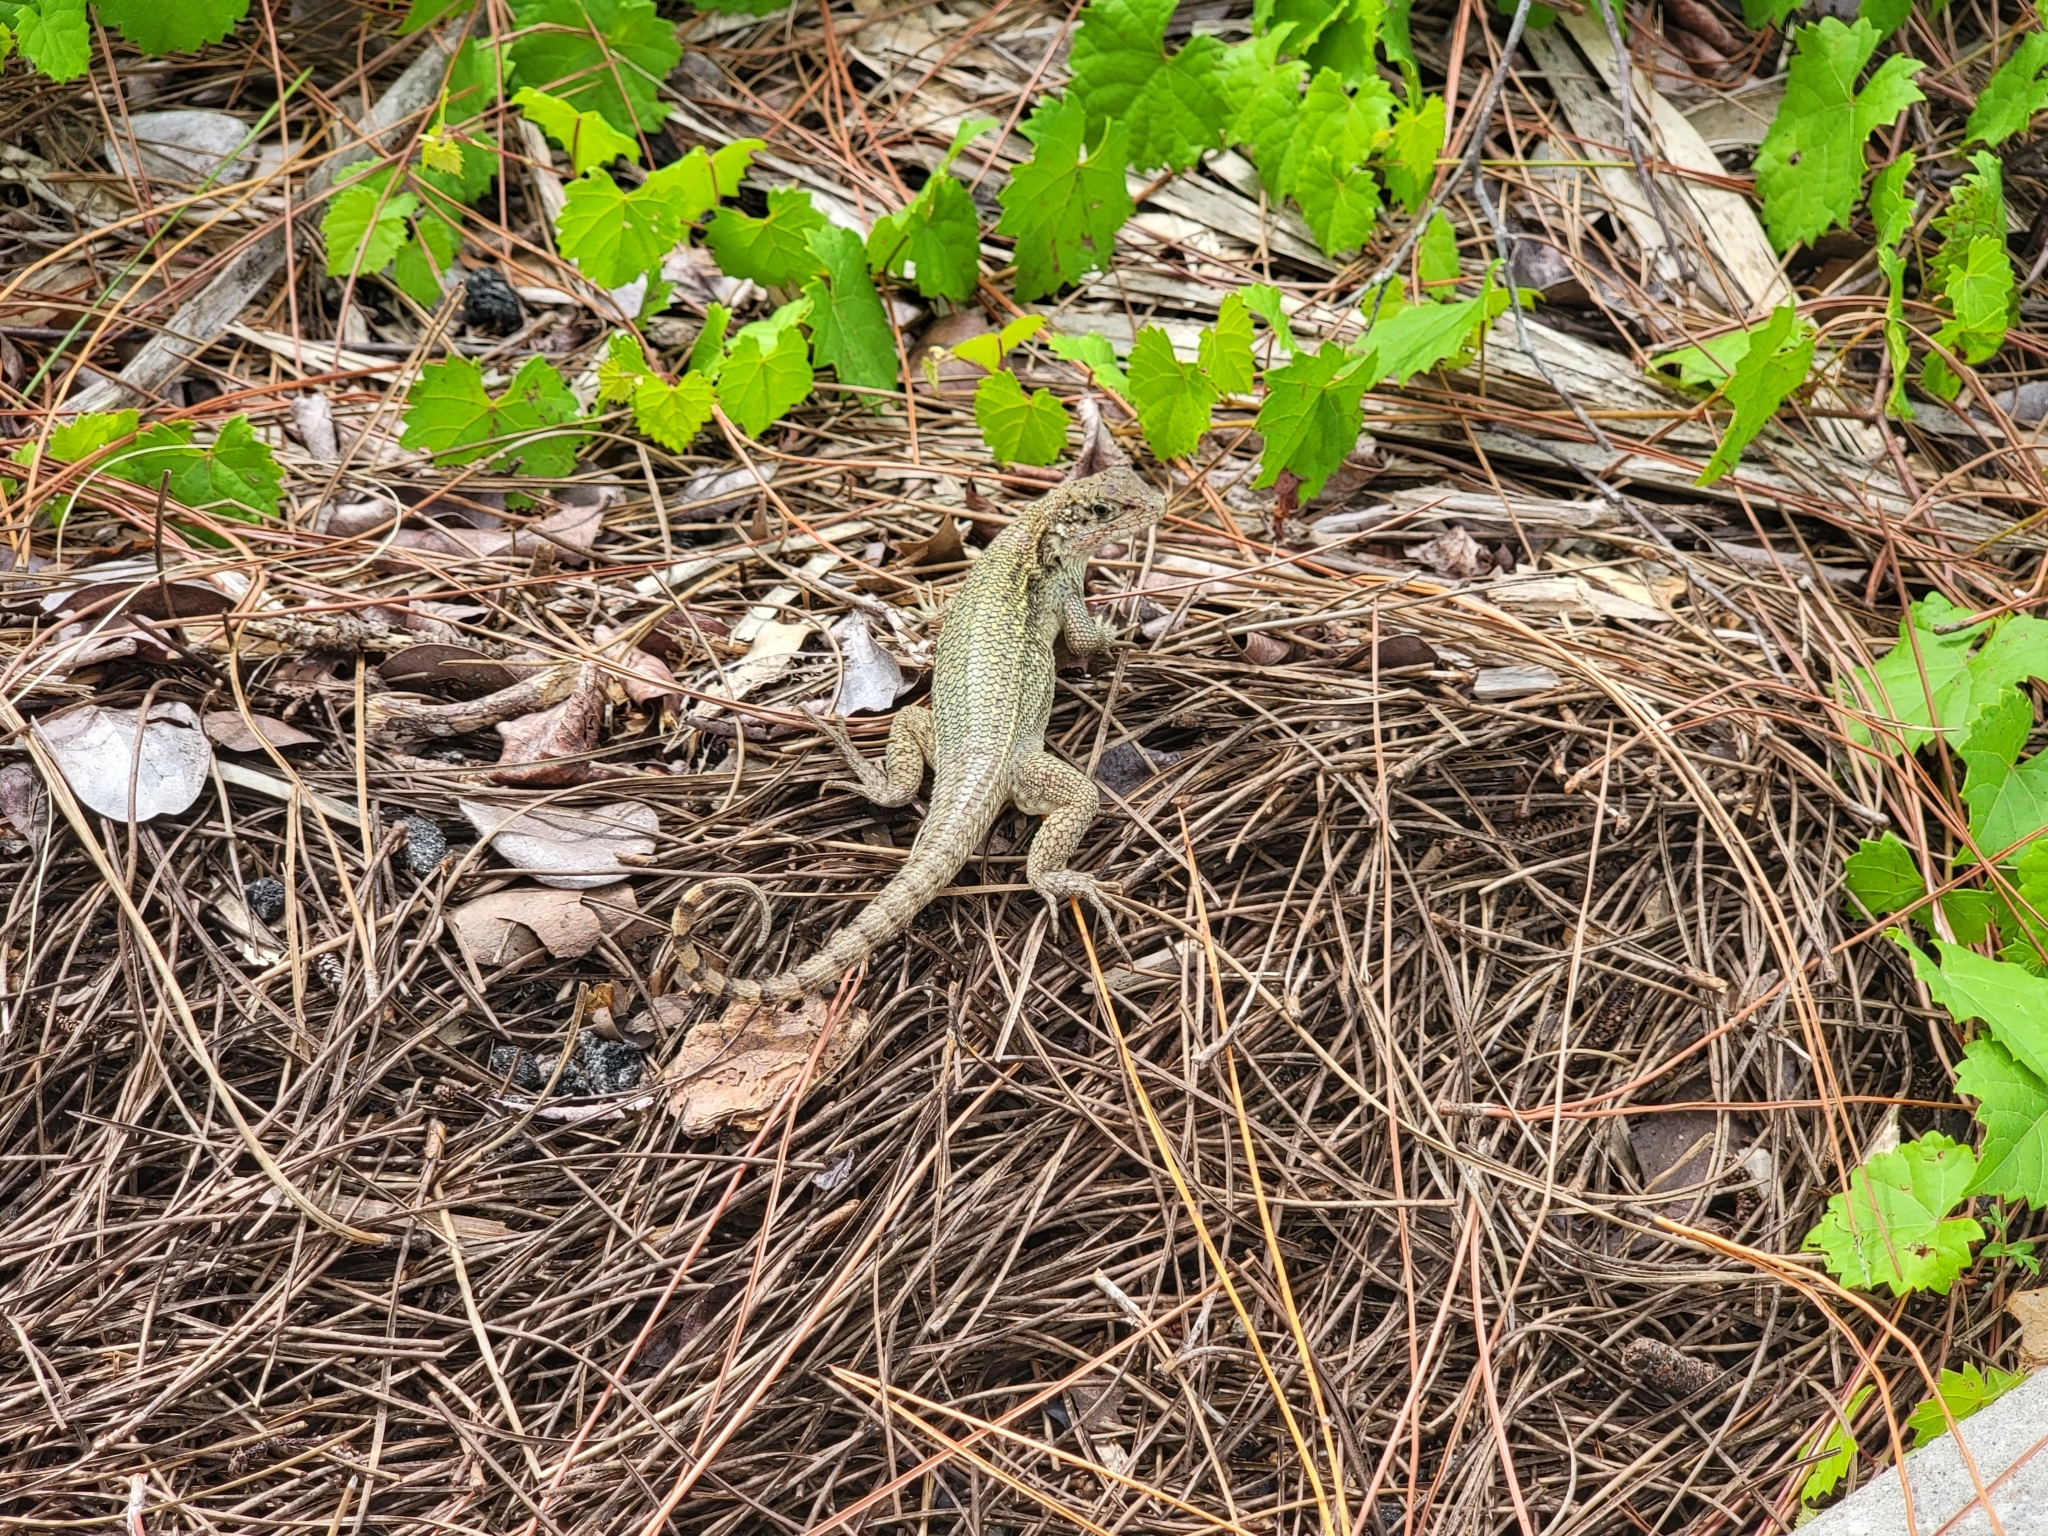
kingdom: Animalia
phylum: Chordata
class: Squamata
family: Leiocephalidae
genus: Leiocephalus
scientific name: Leiocephalus carinatus
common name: Northern curly-tailed lizard
